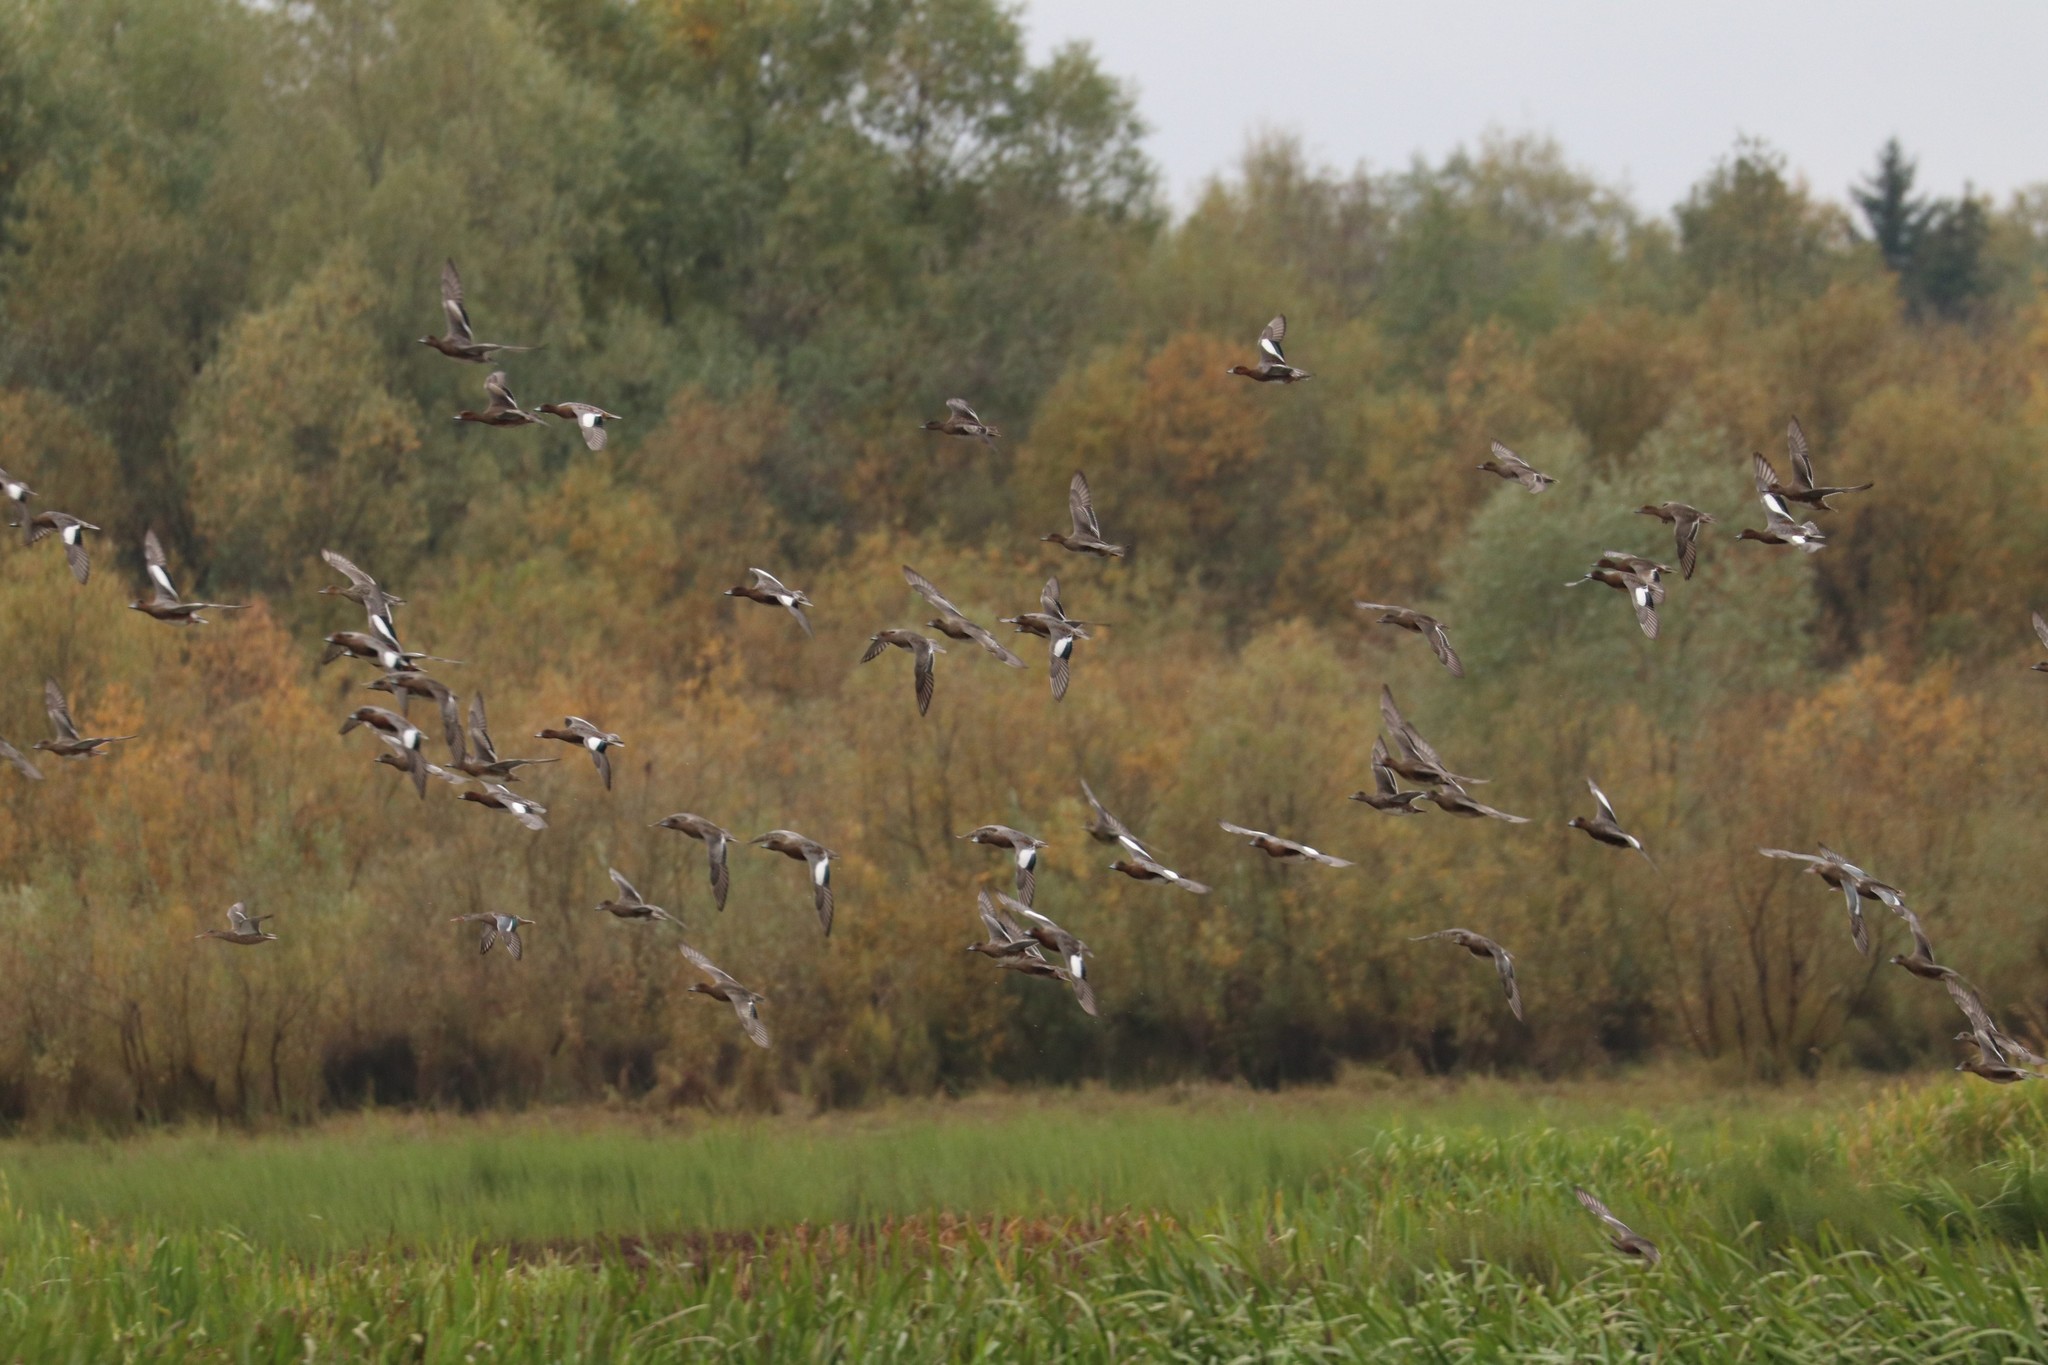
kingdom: Animalia
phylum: Chordata
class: Aves
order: Anseriformes
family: Anatidae
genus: Mareca
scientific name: Mareca penelope
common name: Eurasian wigeon
